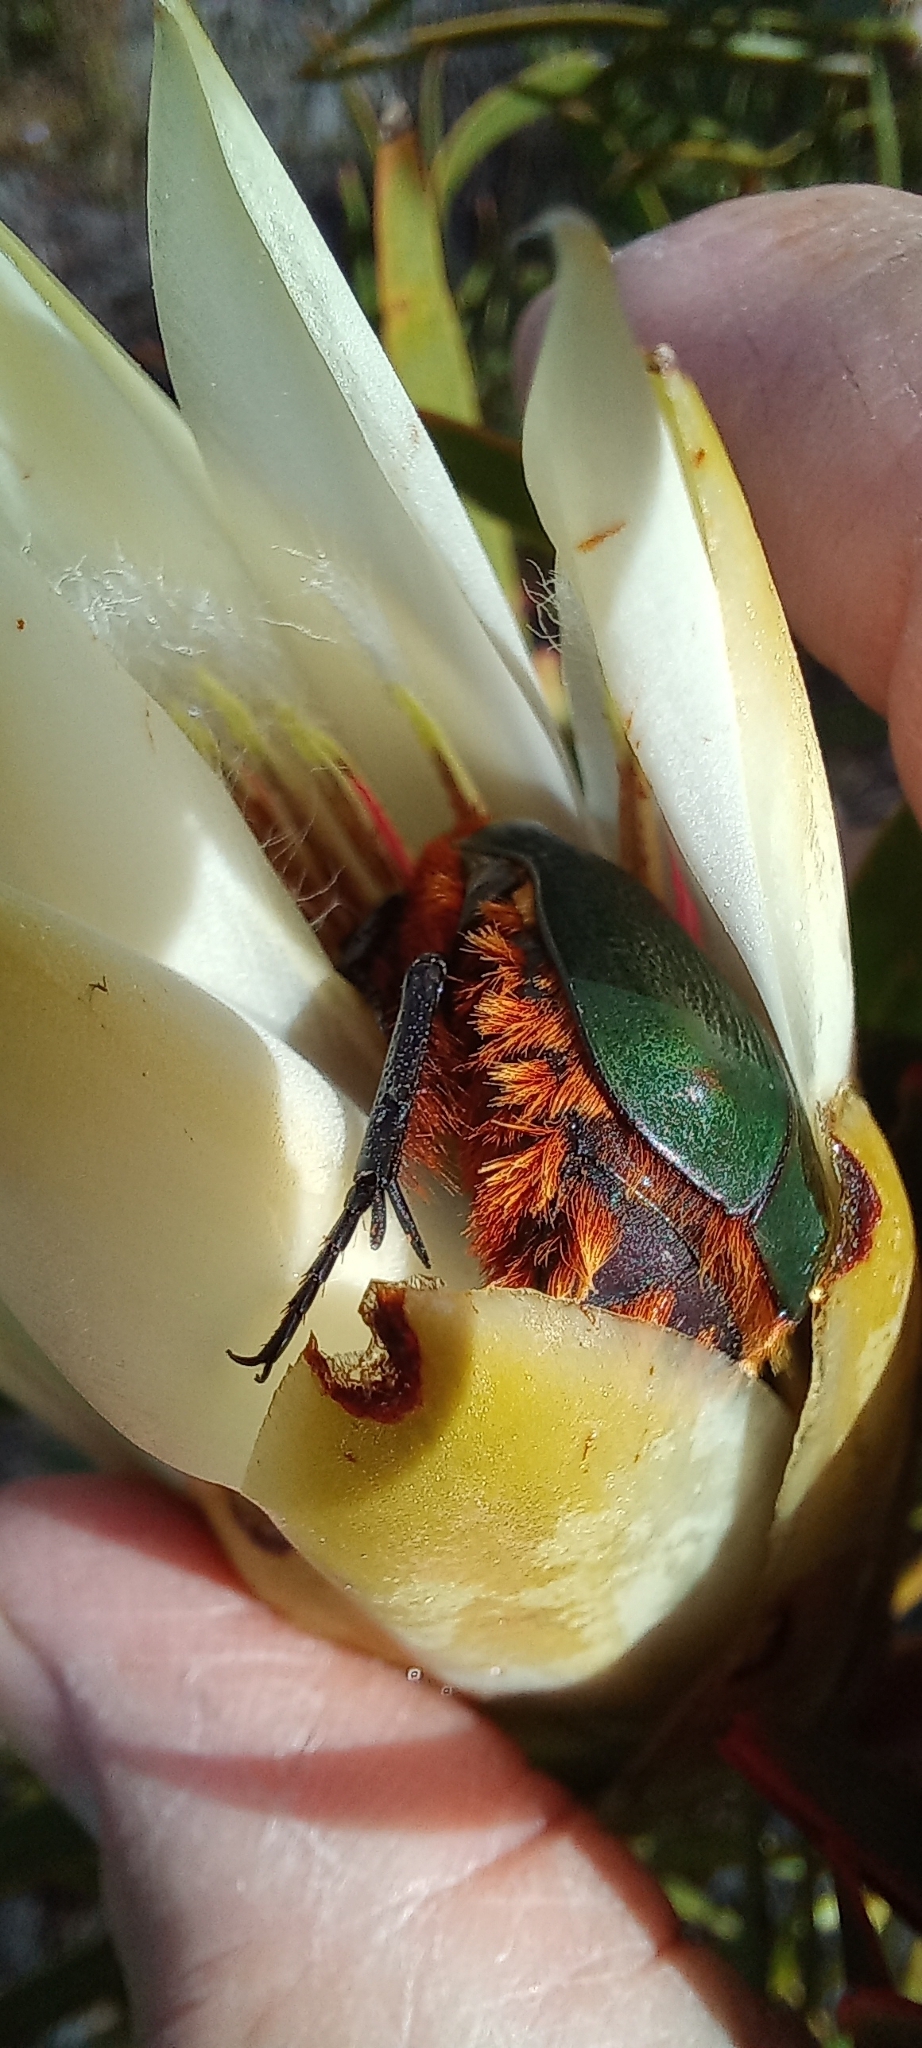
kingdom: Animalia
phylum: Arthropoda
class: Insecta
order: Coleoptera
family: Scarabaeidae
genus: Trichostetha
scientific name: Trichostetha fascicularis
